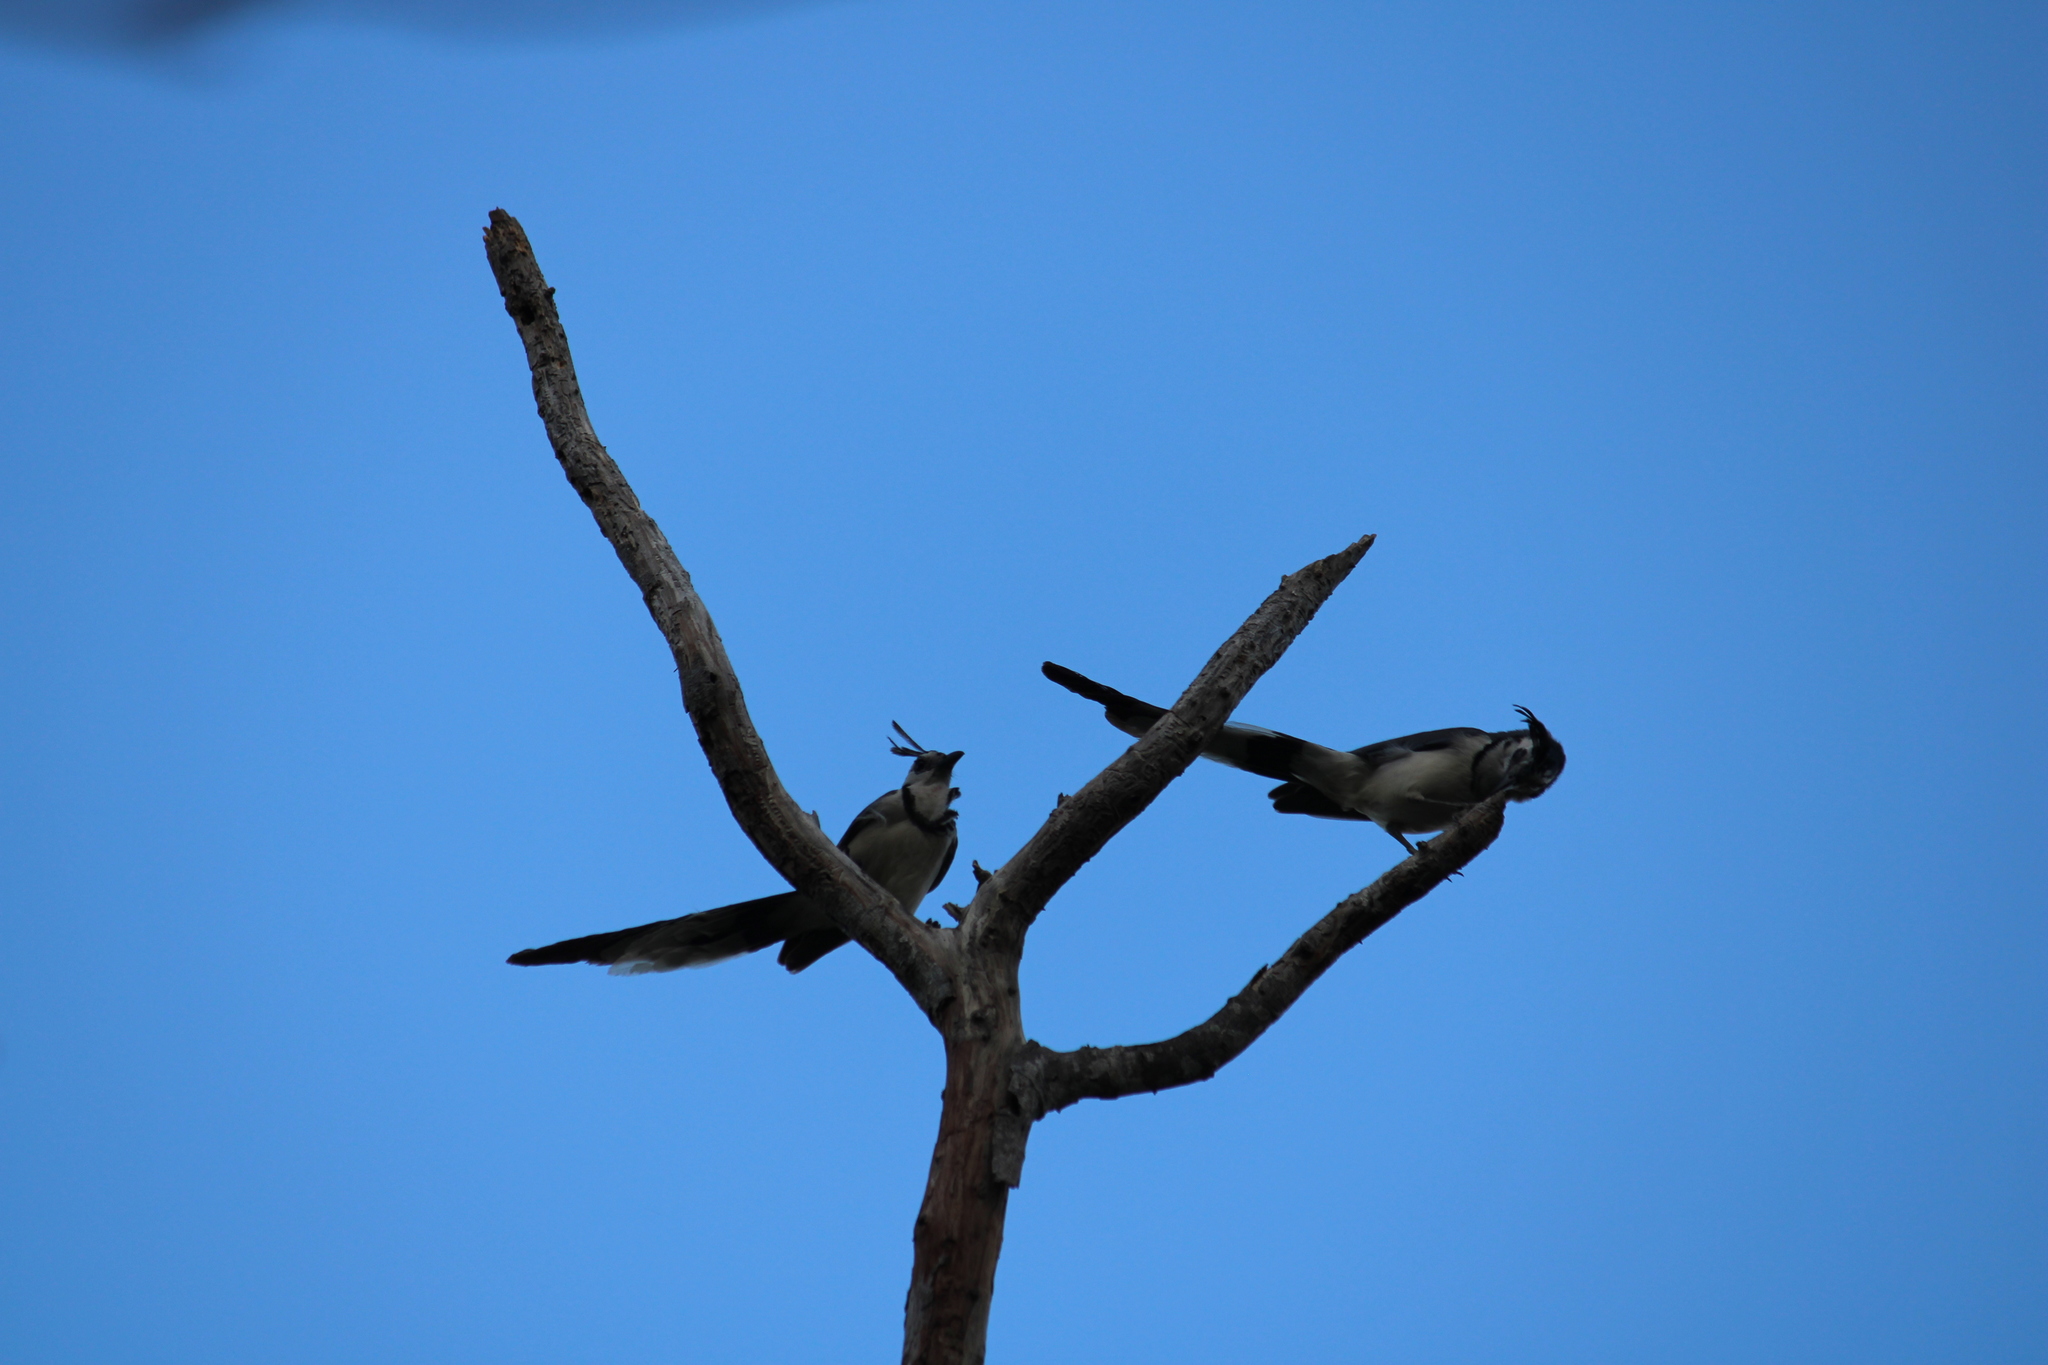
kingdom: Animalia
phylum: Chordata
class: Aves
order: Passeriformes
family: Corvidae
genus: Calocitta
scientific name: Calocitta formosa
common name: White-throated magpie-jay
